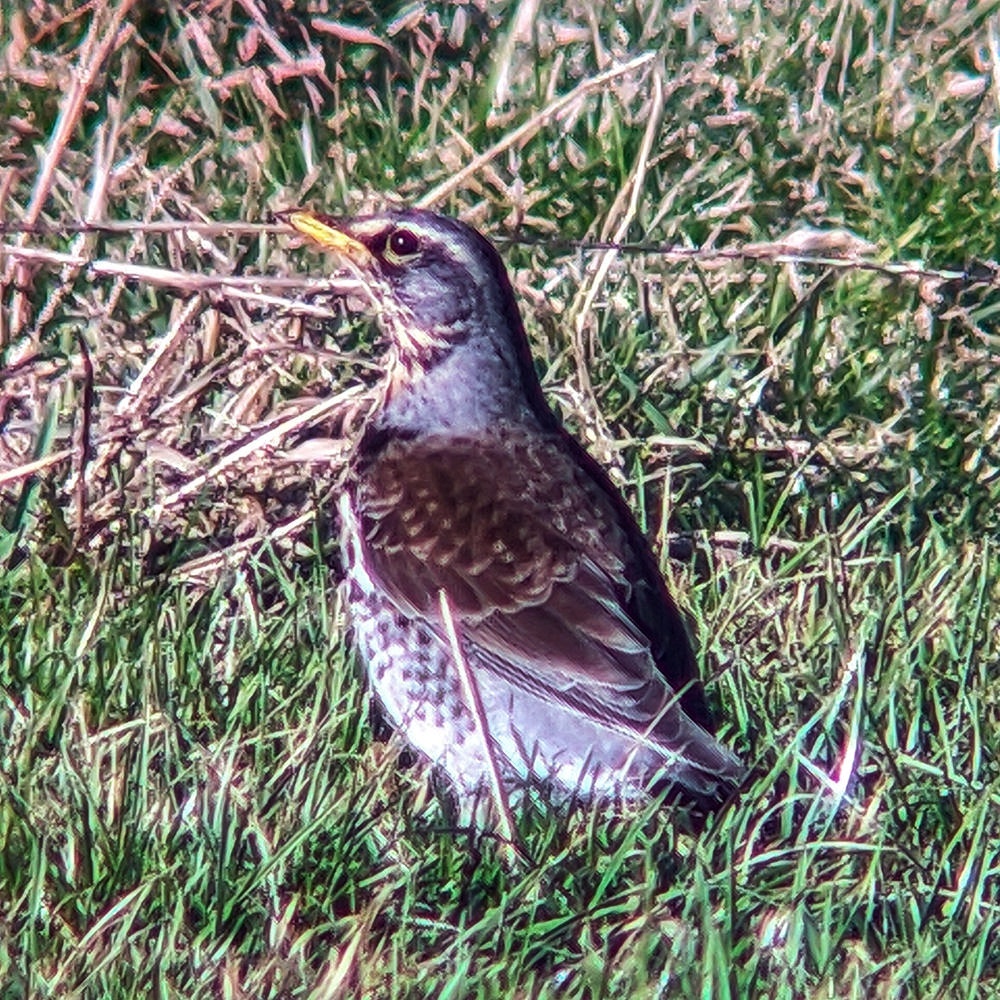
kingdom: Animalia
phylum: Chordata
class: Aves
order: Passeriformes
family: Turdidae
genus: Turdus
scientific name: Turdus pilaris
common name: Fieldfare
